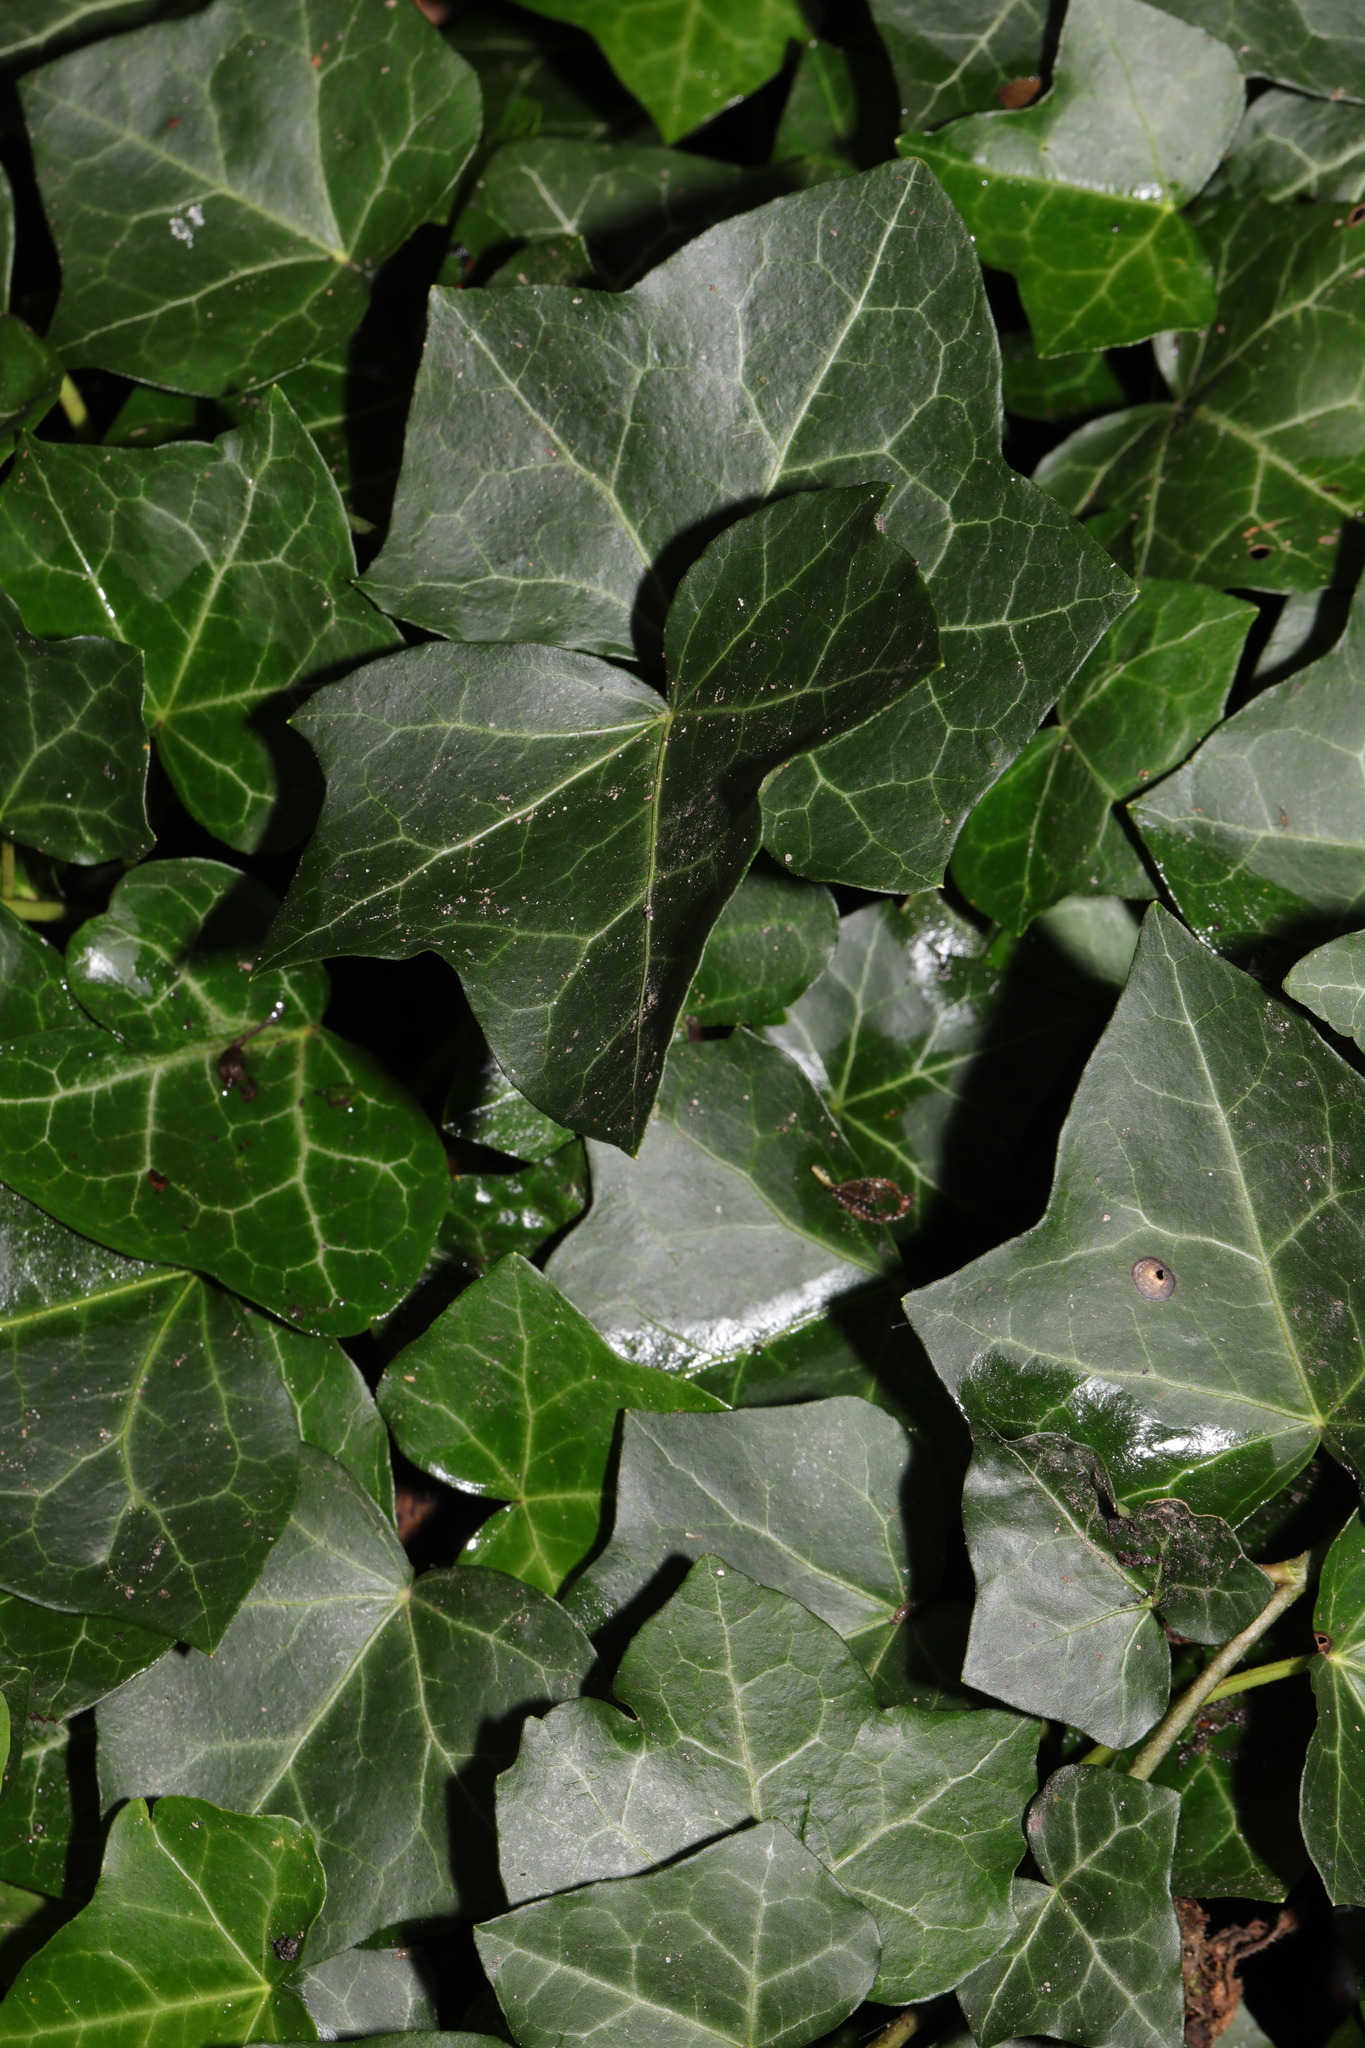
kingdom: Plantae
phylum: Tracheophyta
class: Magnoliopsida
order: Apiales
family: Araliaceae
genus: Hedera
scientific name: Hedera helix
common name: Ivy
